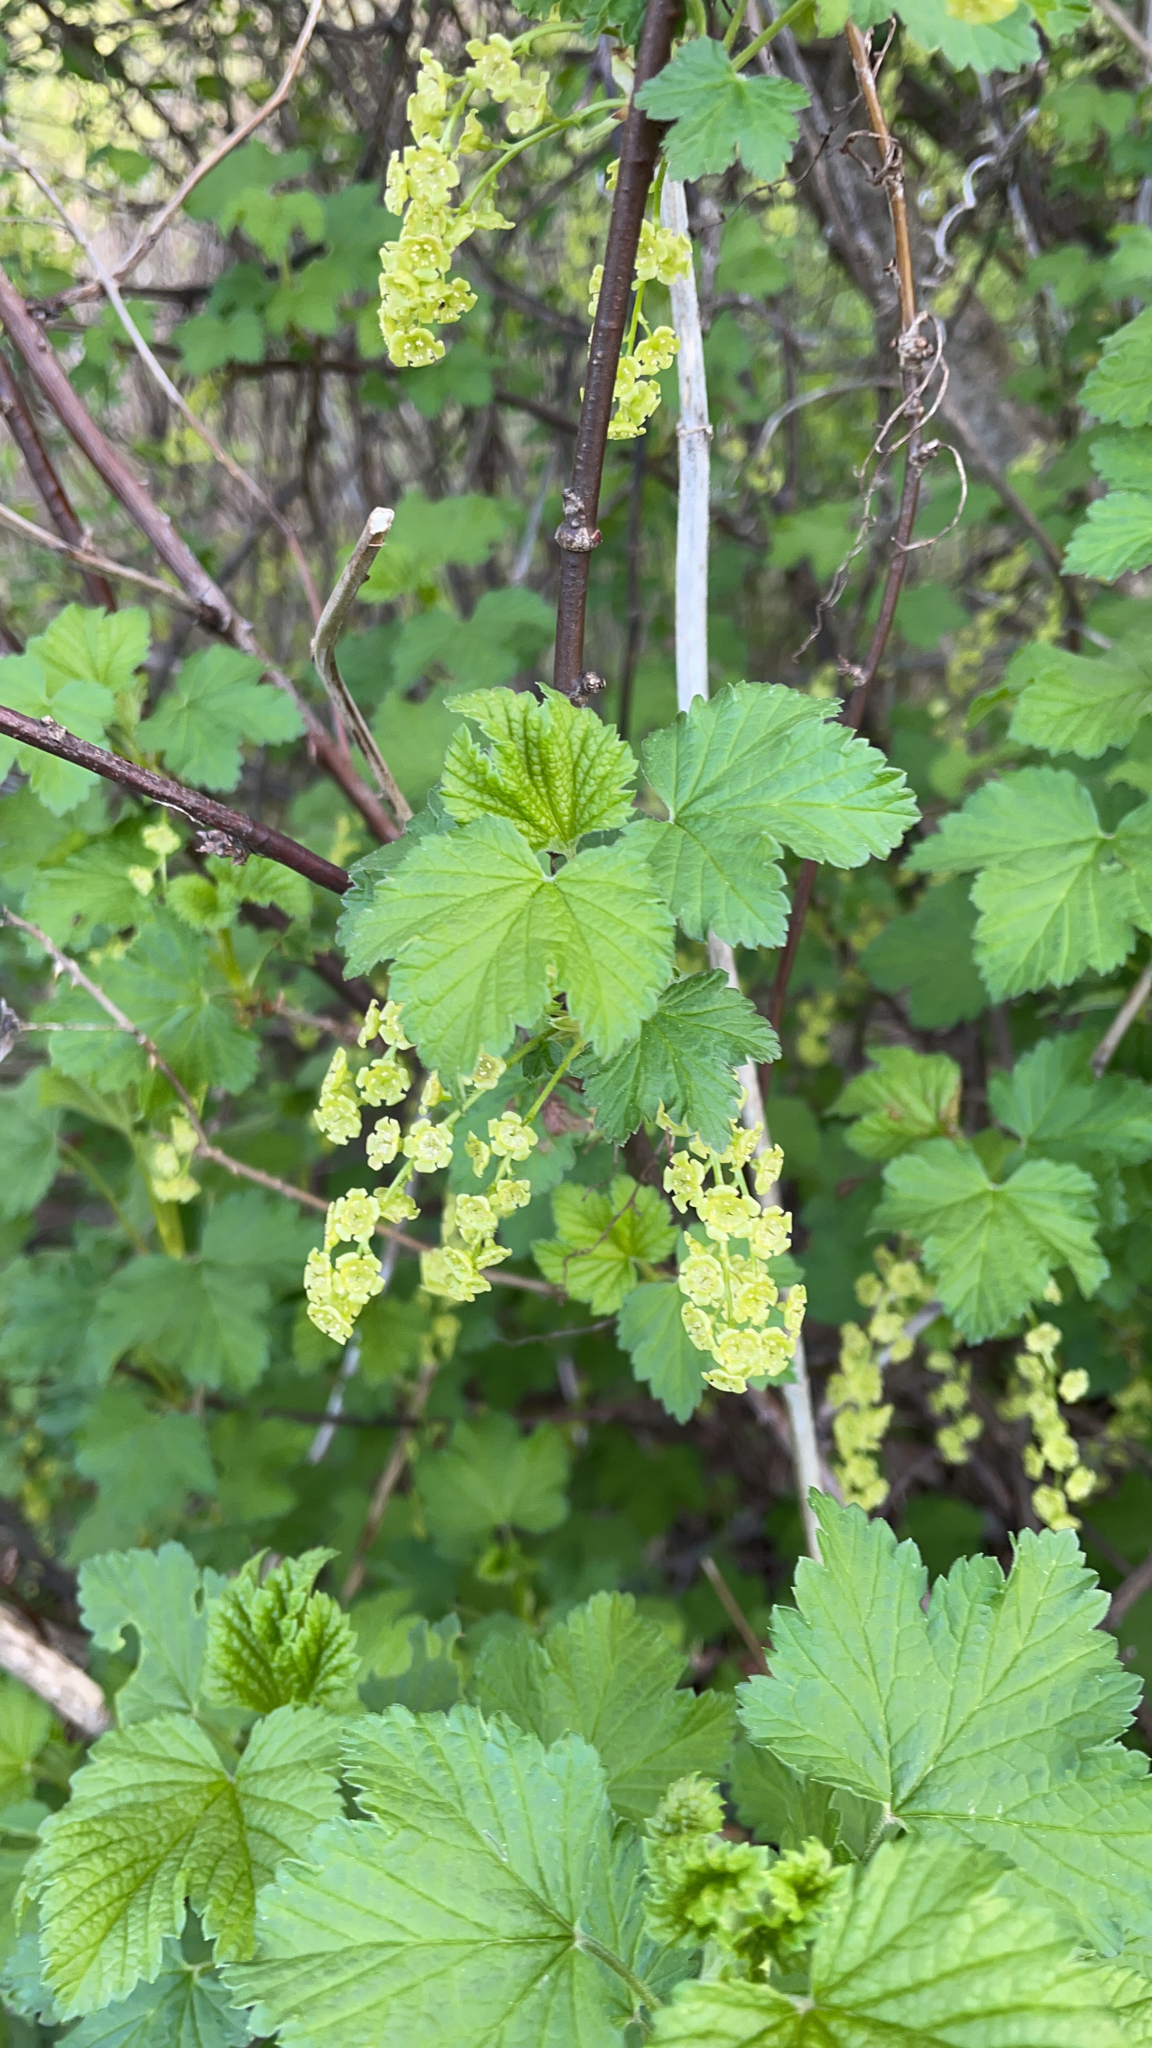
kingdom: Plantae
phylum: Tracheophyta
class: Magnoliopsida
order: Saxifragales
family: Grossulariaceae
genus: Ribes
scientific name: Ribes rubrum
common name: Red currant
